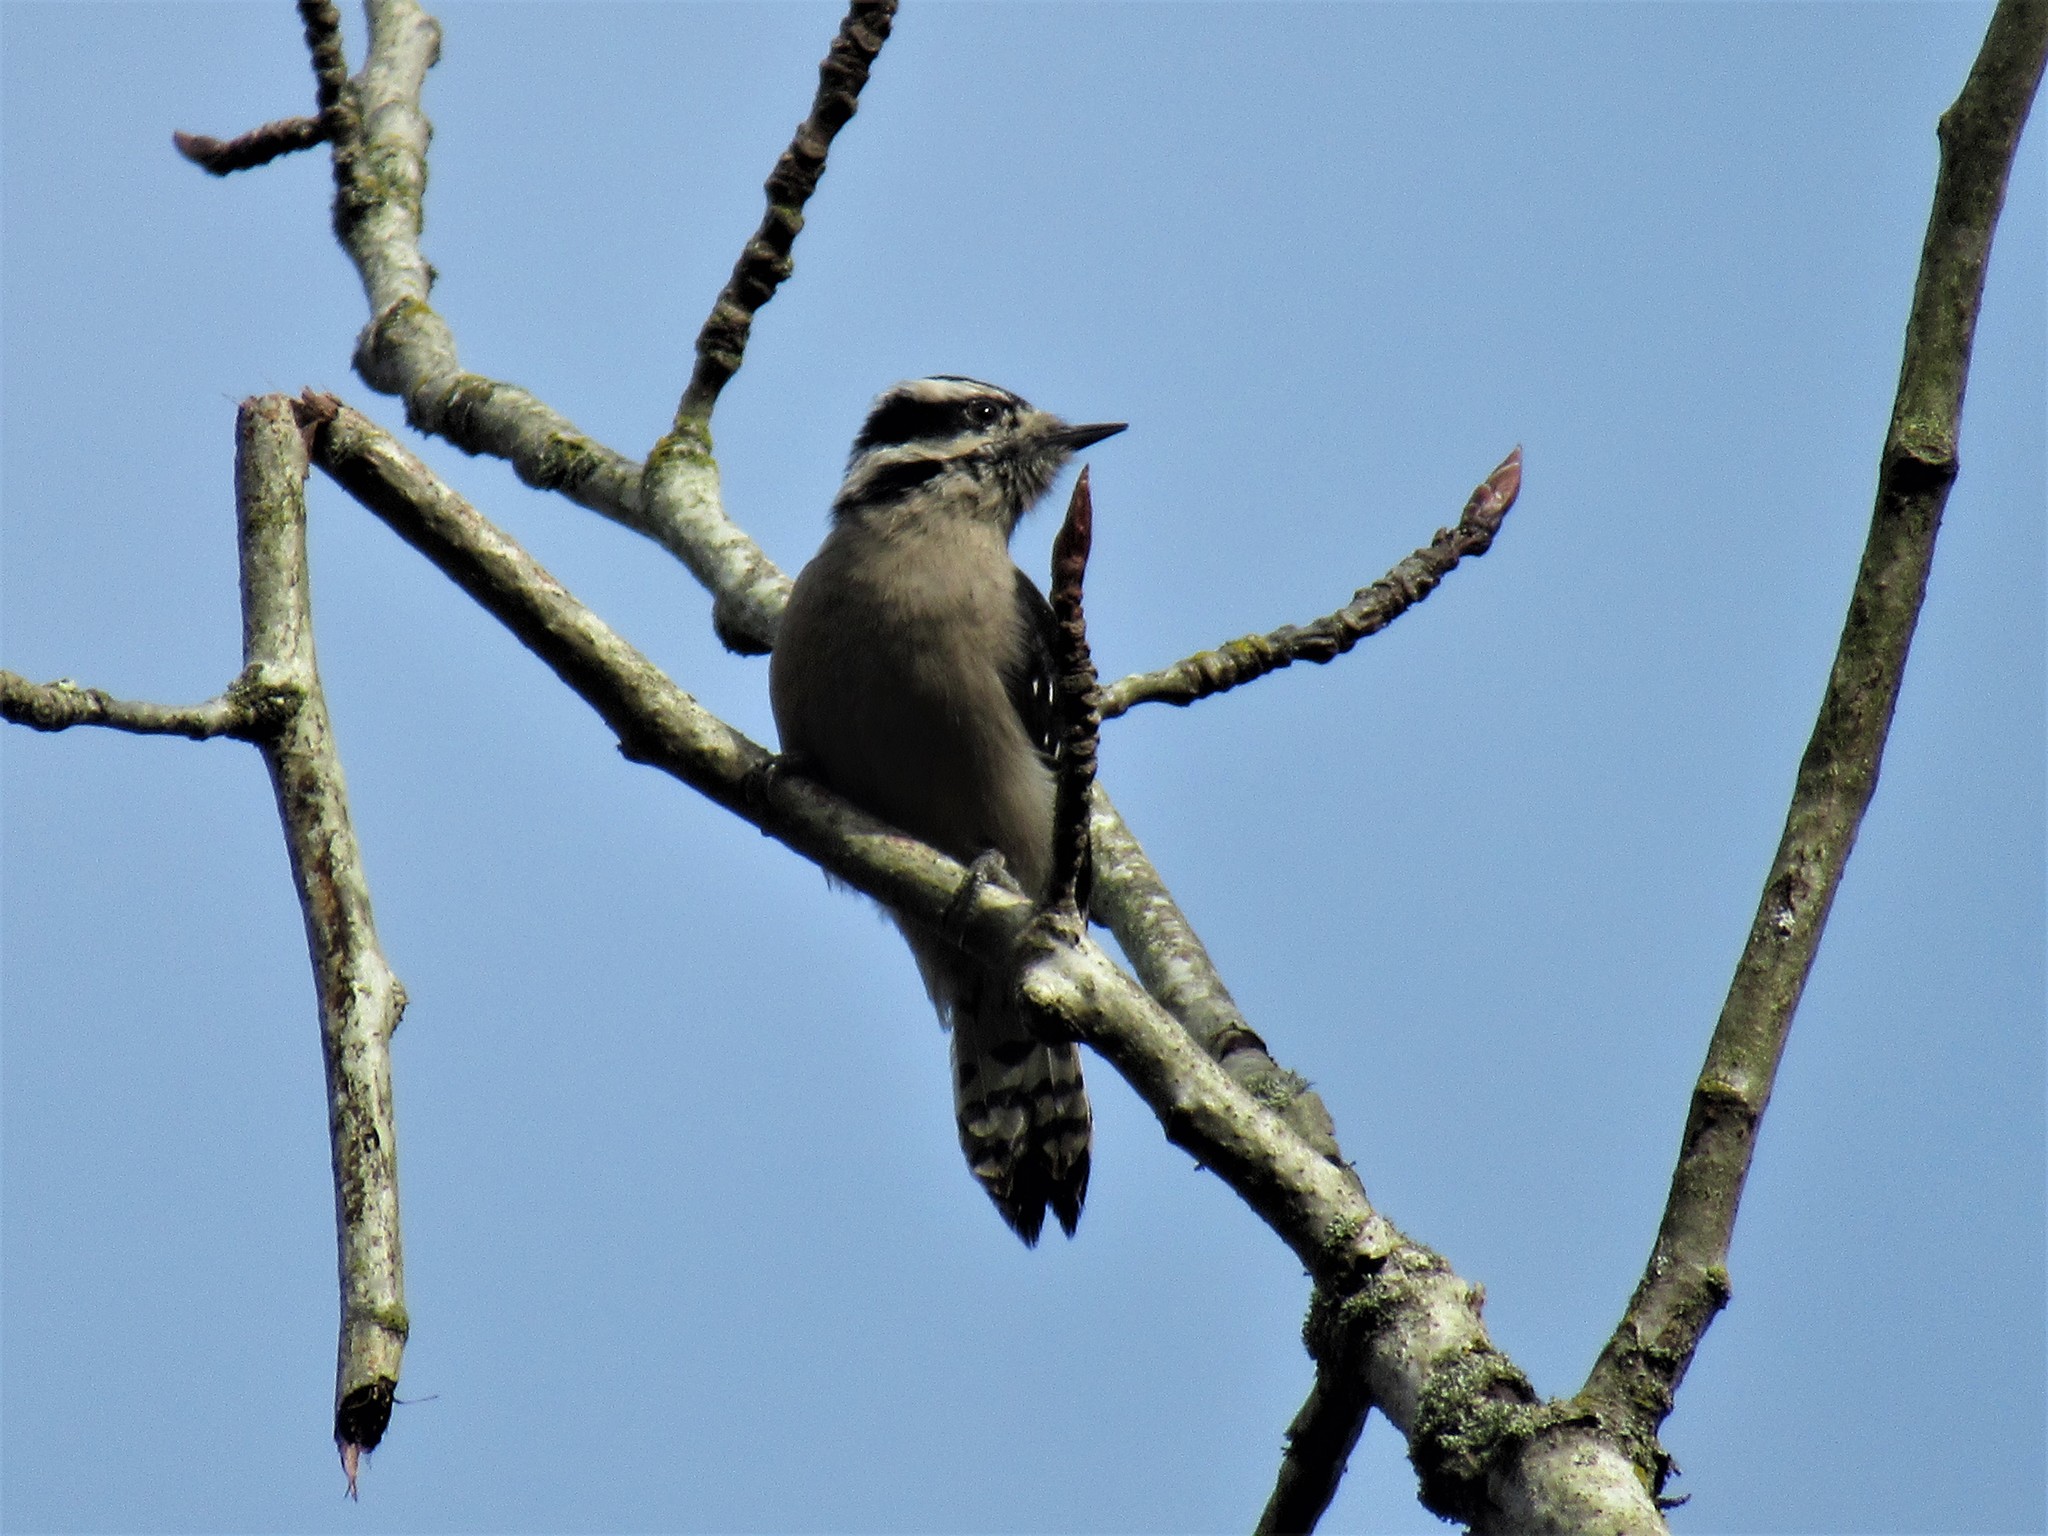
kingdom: Animalia
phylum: Chordata
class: Aves
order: Piciformes
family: Picidae
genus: Dryobates
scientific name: Dryobates pubescens
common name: Downy woodpecker
